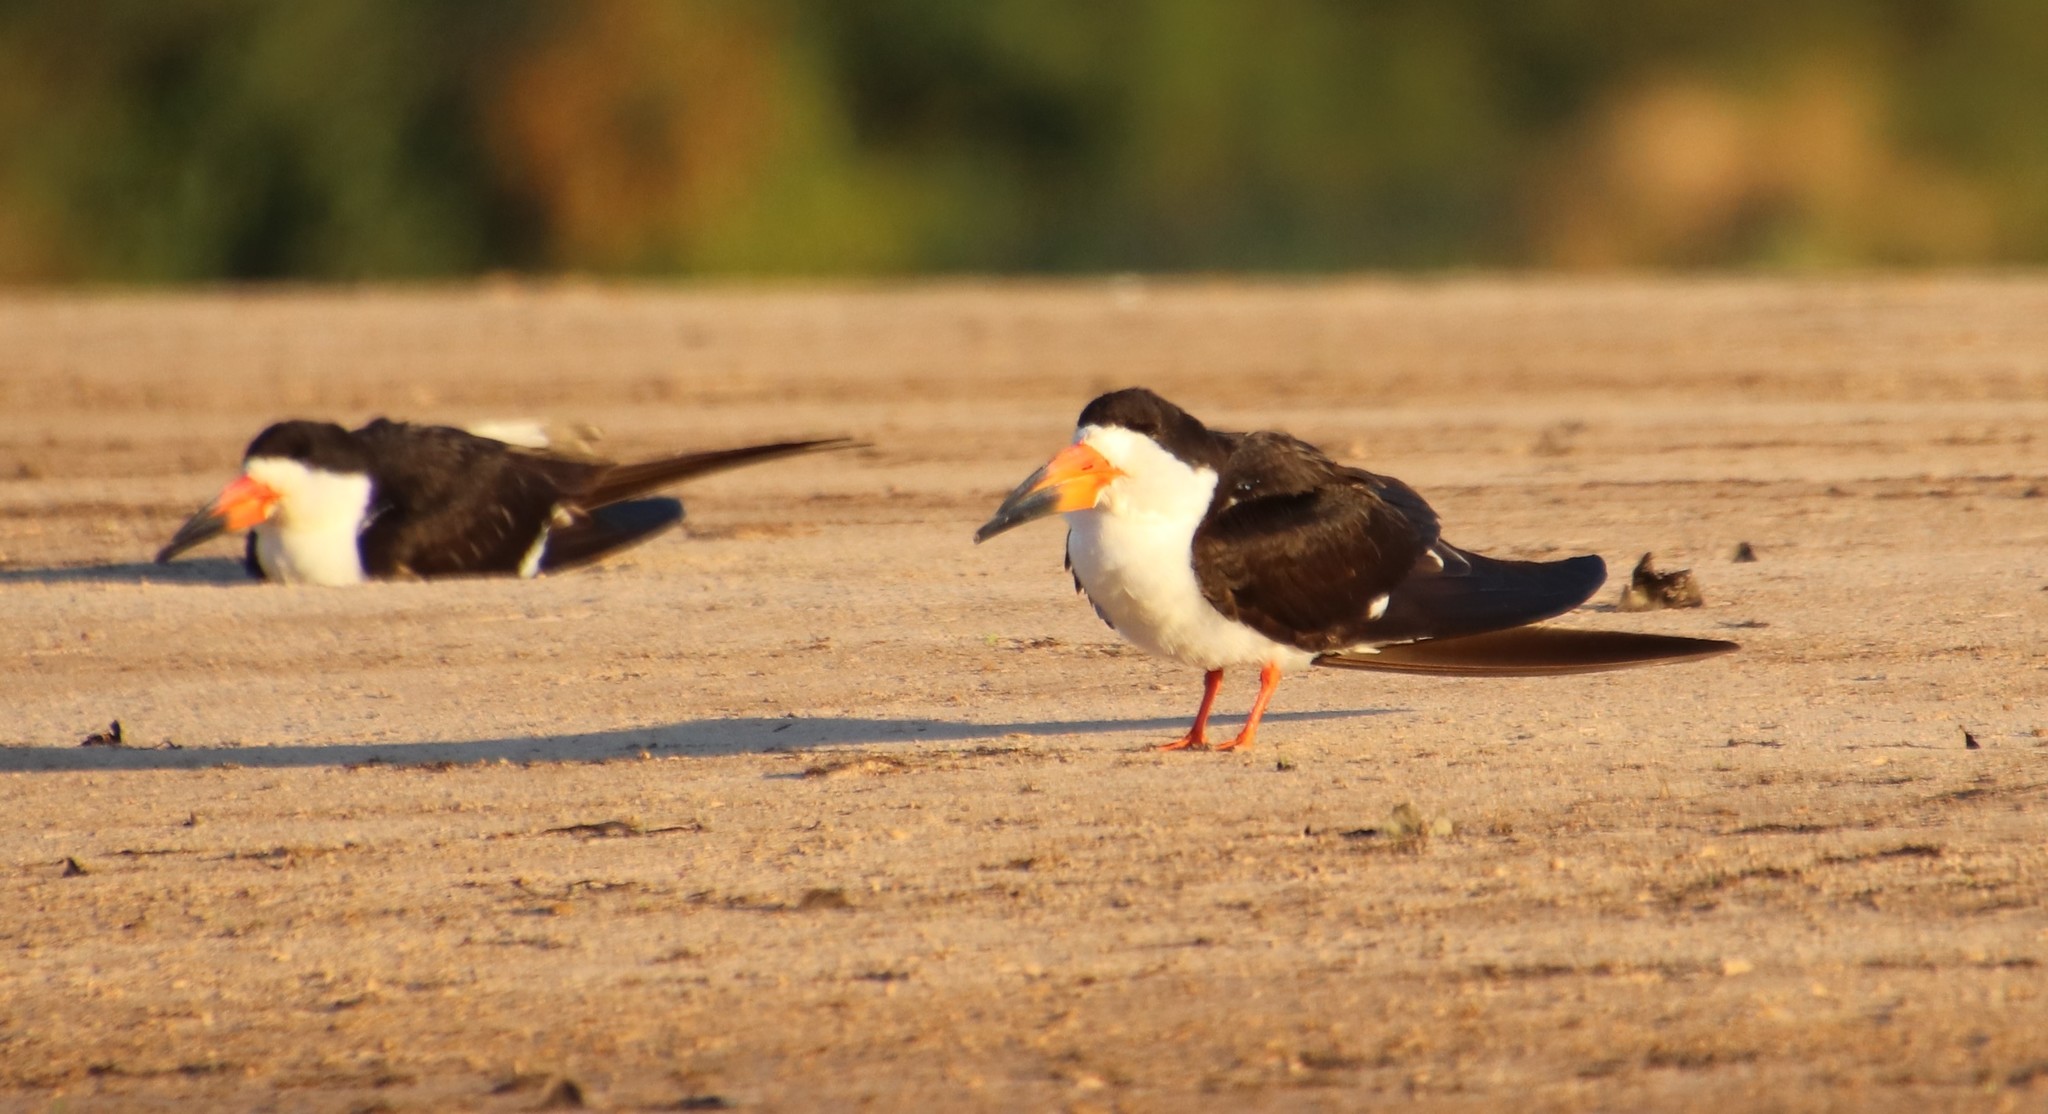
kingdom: Animalia
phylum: Chordata
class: Aves
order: Charadriiformes
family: Laridae
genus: Rynchops
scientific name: Rynchops niger
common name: Black skimmer
